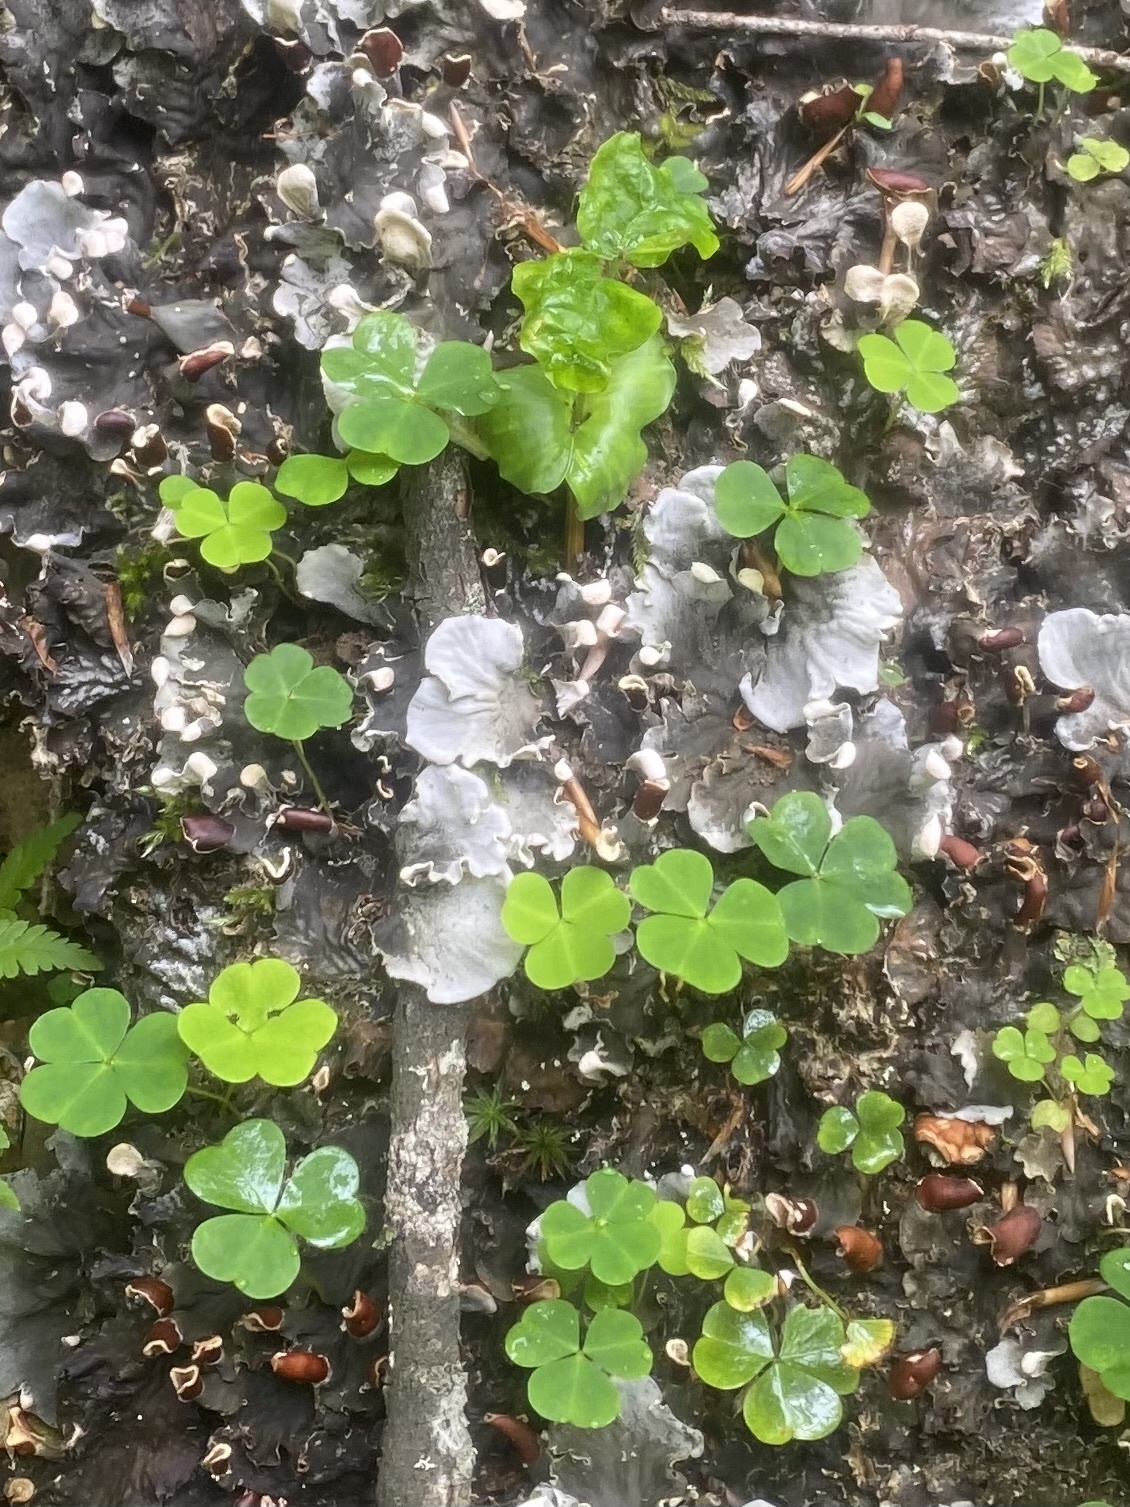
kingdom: Plantae
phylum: Tracheophyta
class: Magnoliopsida
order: Oxalidales
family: Oxalidaceae
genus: Oxalis
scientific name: Oxalis acetosella
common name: Wood-sorrel
